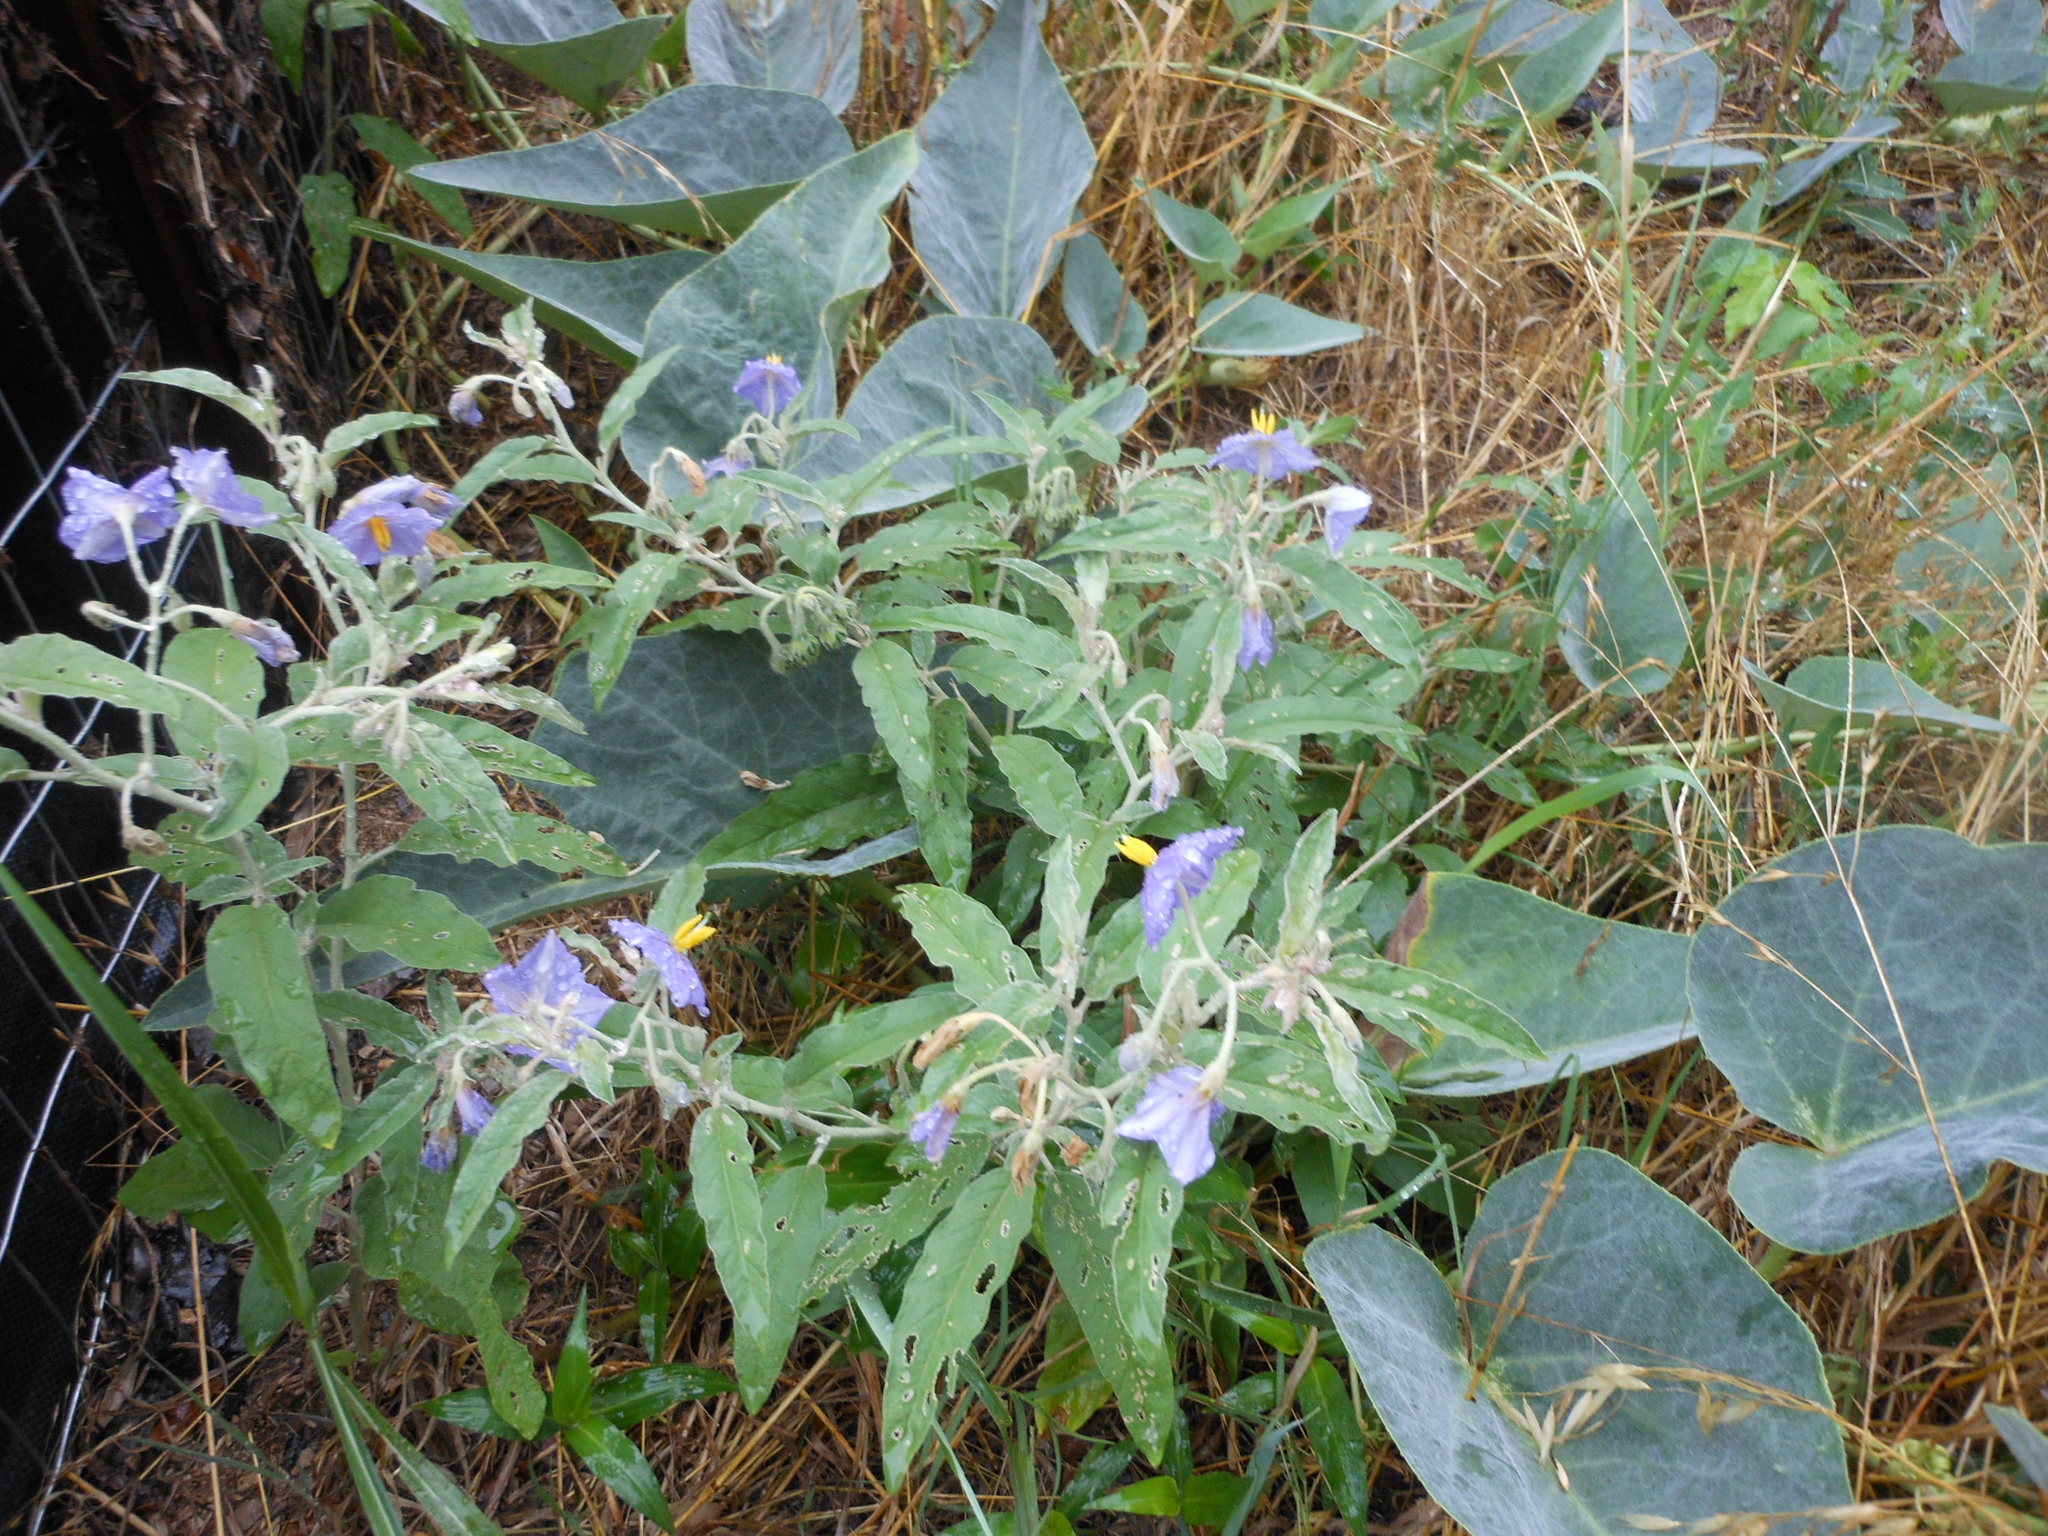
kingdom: Plantae
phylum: Tracheophyta
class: Magnoliopsida
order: Solanales
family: Solanaceae
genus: Solanum
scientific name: Solanum elaeagnifolium
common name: Silverleaf nightshade
